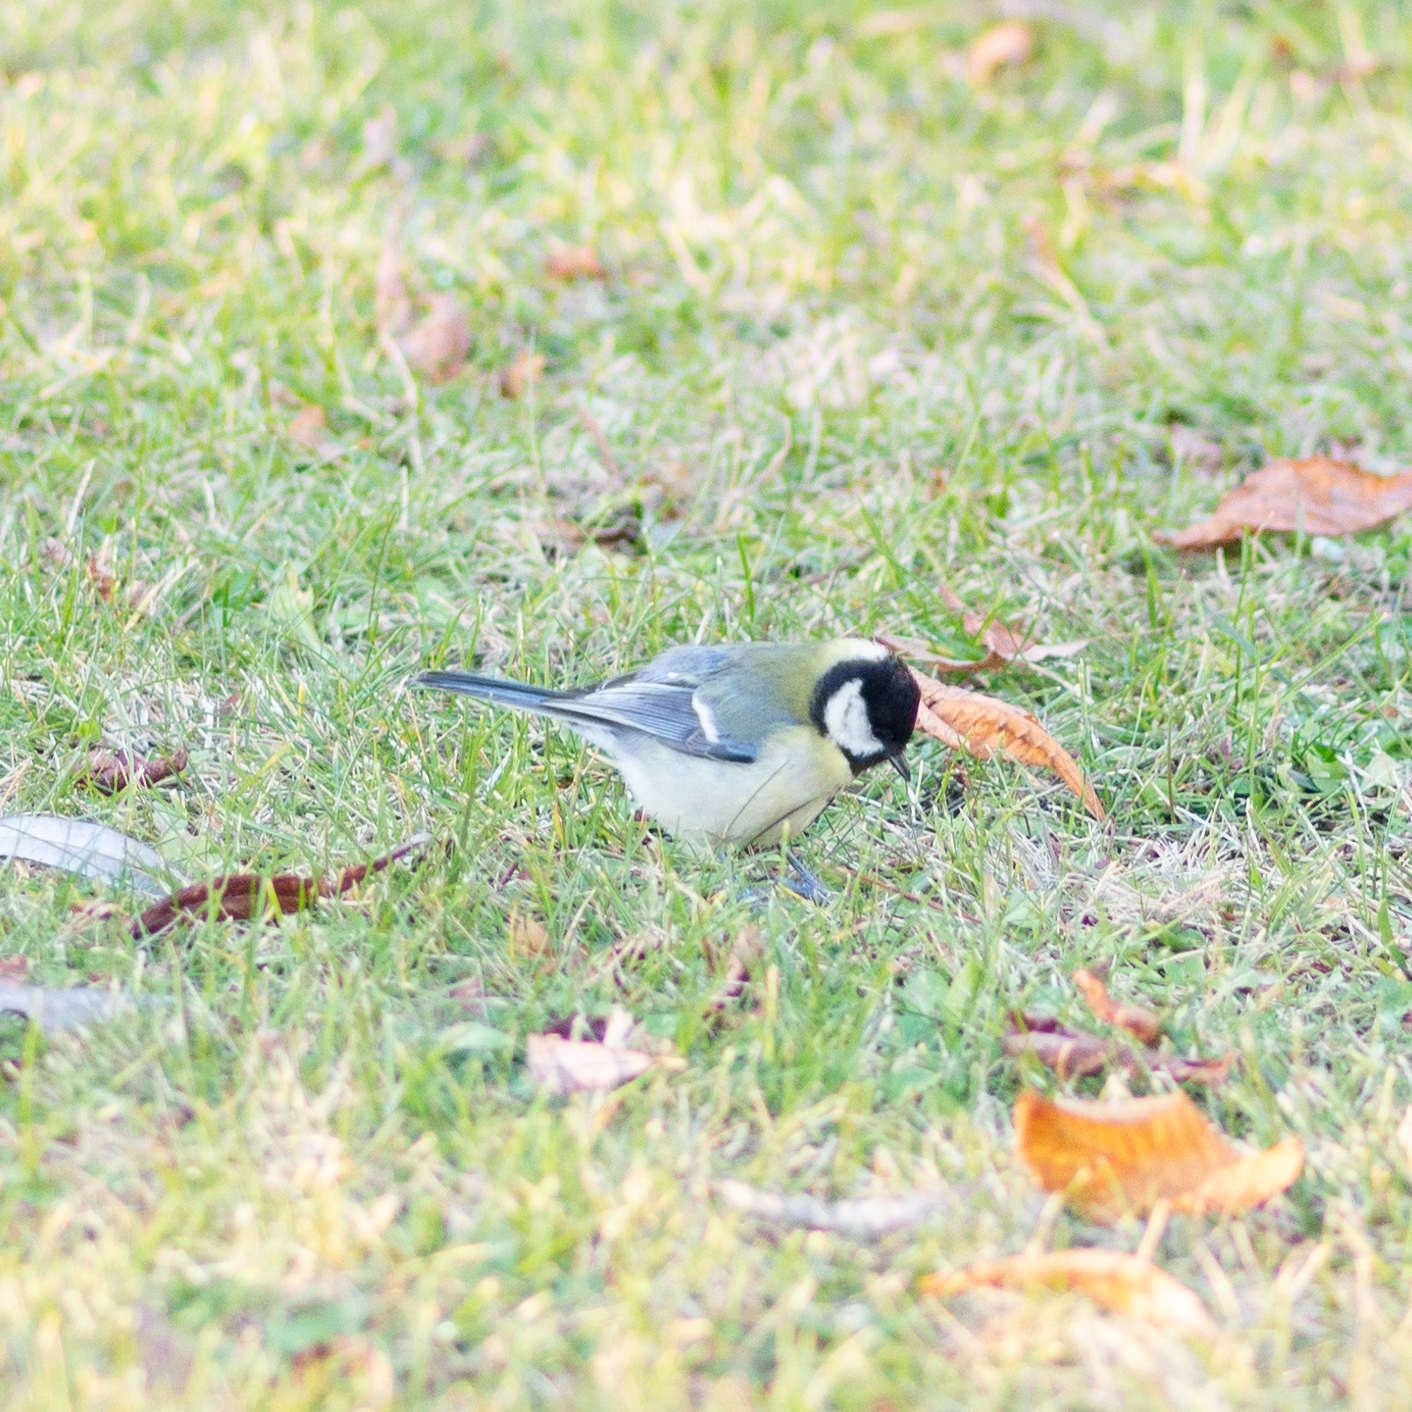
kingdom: Animalia
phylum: Chordata
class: Aves
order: Passeriformes
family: Paridae
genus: Parus
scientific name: Parus major
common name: Great tit
